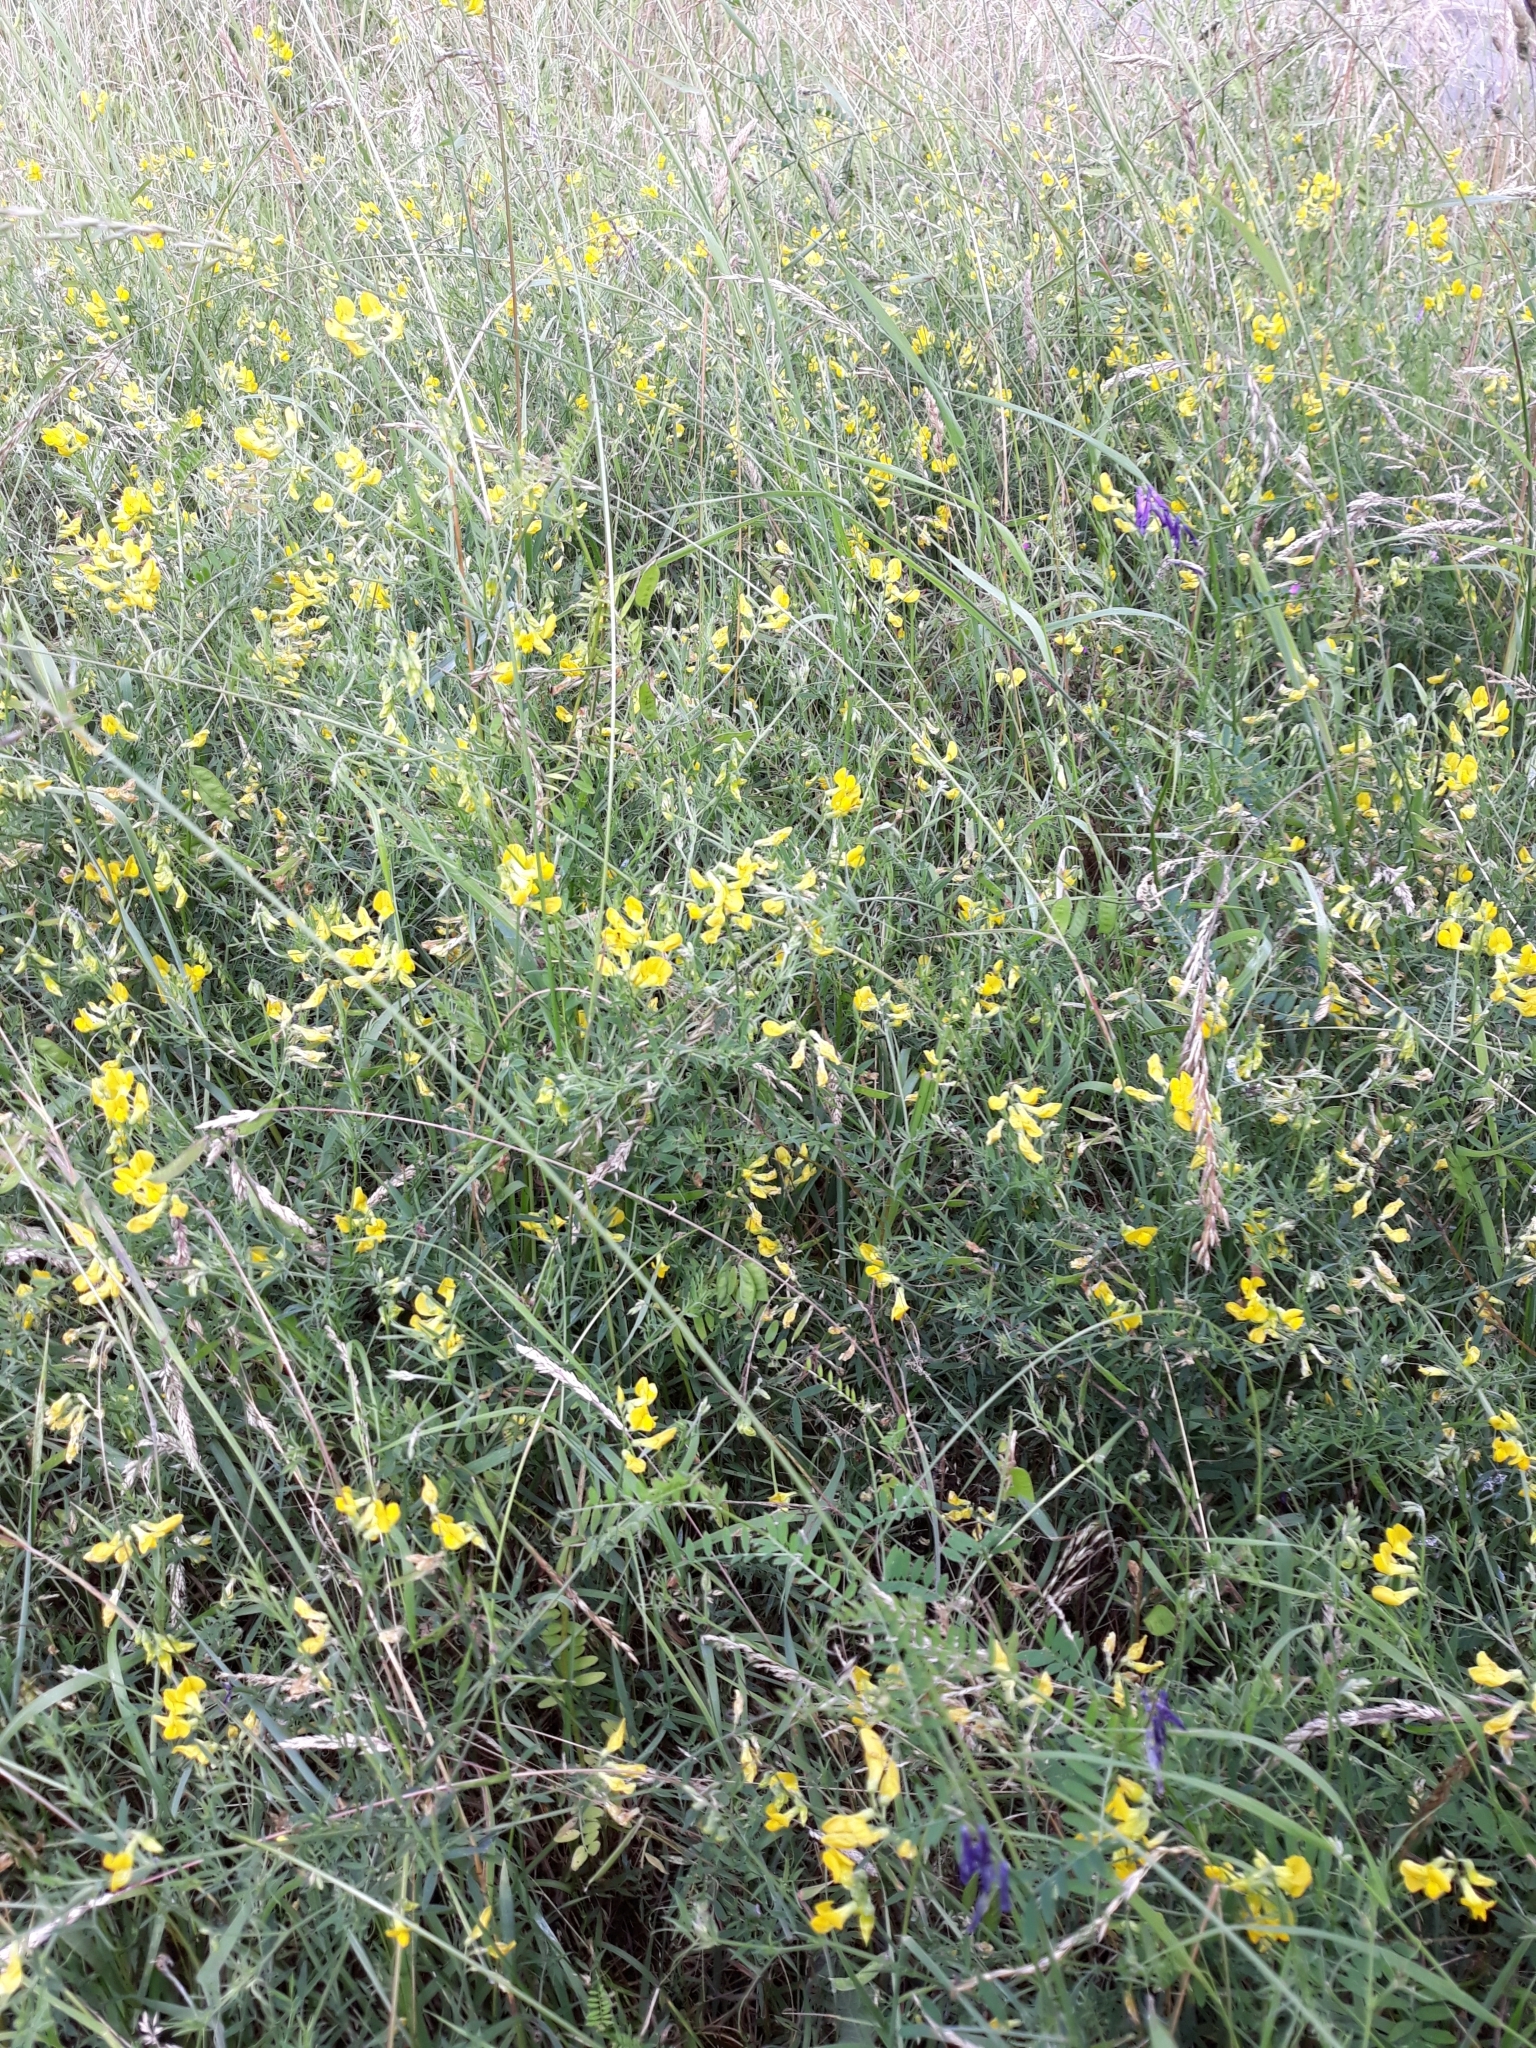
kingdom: Plantae
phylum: Tracheophyta
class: Magnoliopsida
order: Fabales
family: Fabaceae
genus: Lathyrus
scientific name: Lathyrus pratensis
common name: Meadow vetchling
